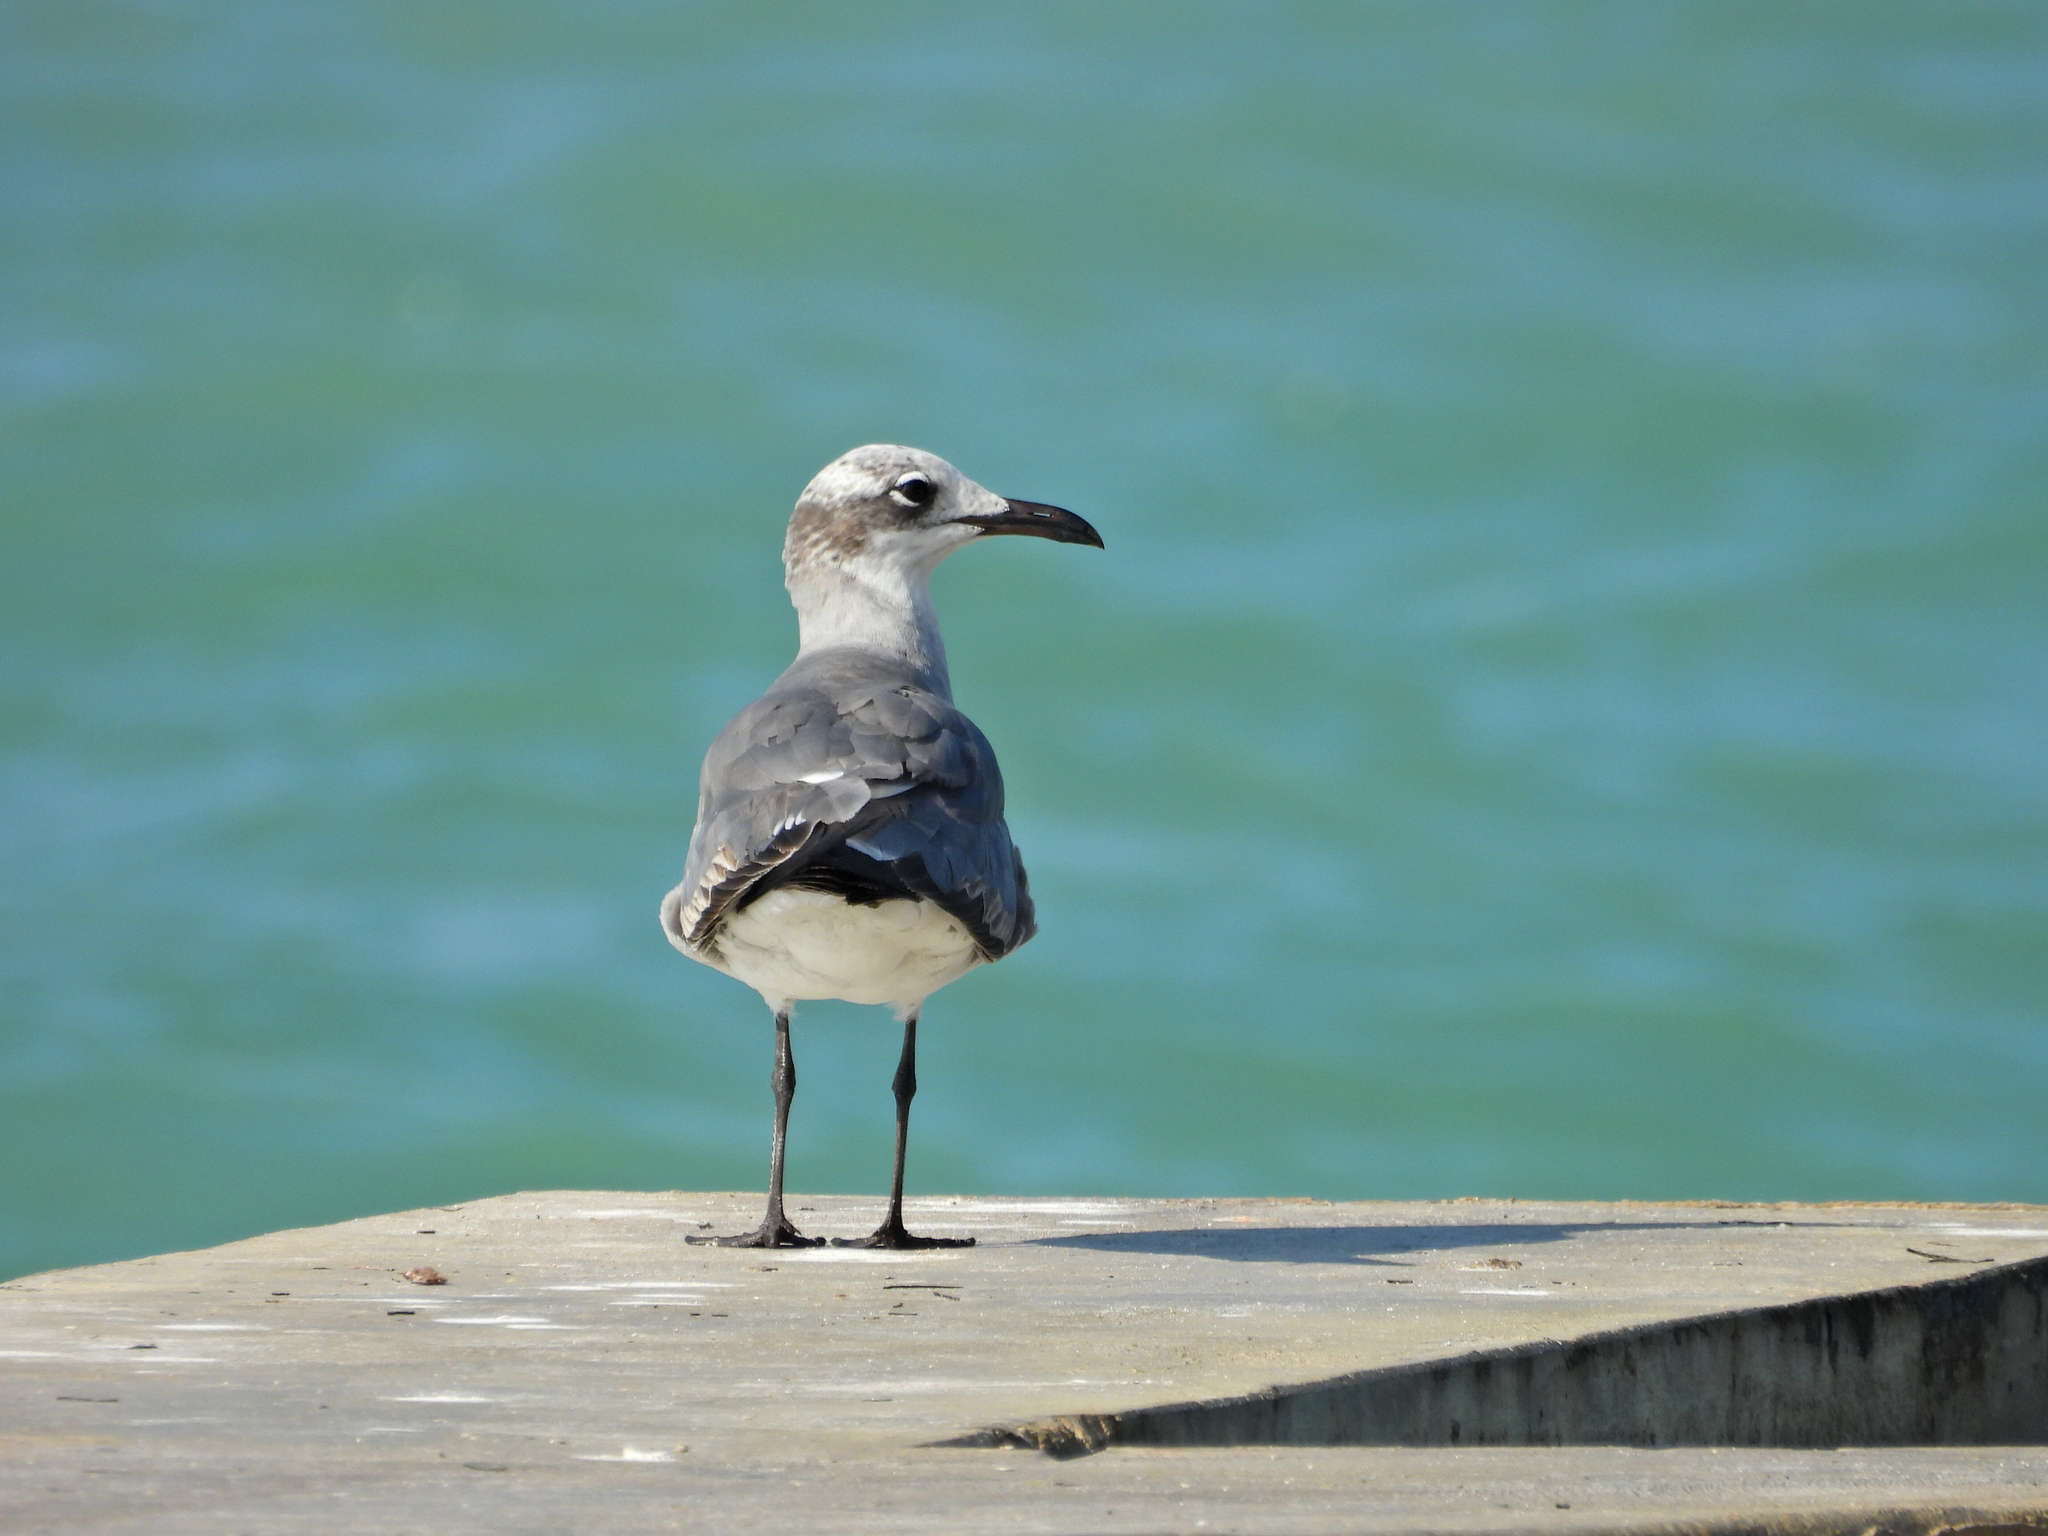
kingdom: Animalia
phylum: Chordata
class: Aves
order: Charadriiformes
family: Laridae
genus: Leucophaeus
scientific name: Leucophaeus atricilla
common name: Laughing gull
